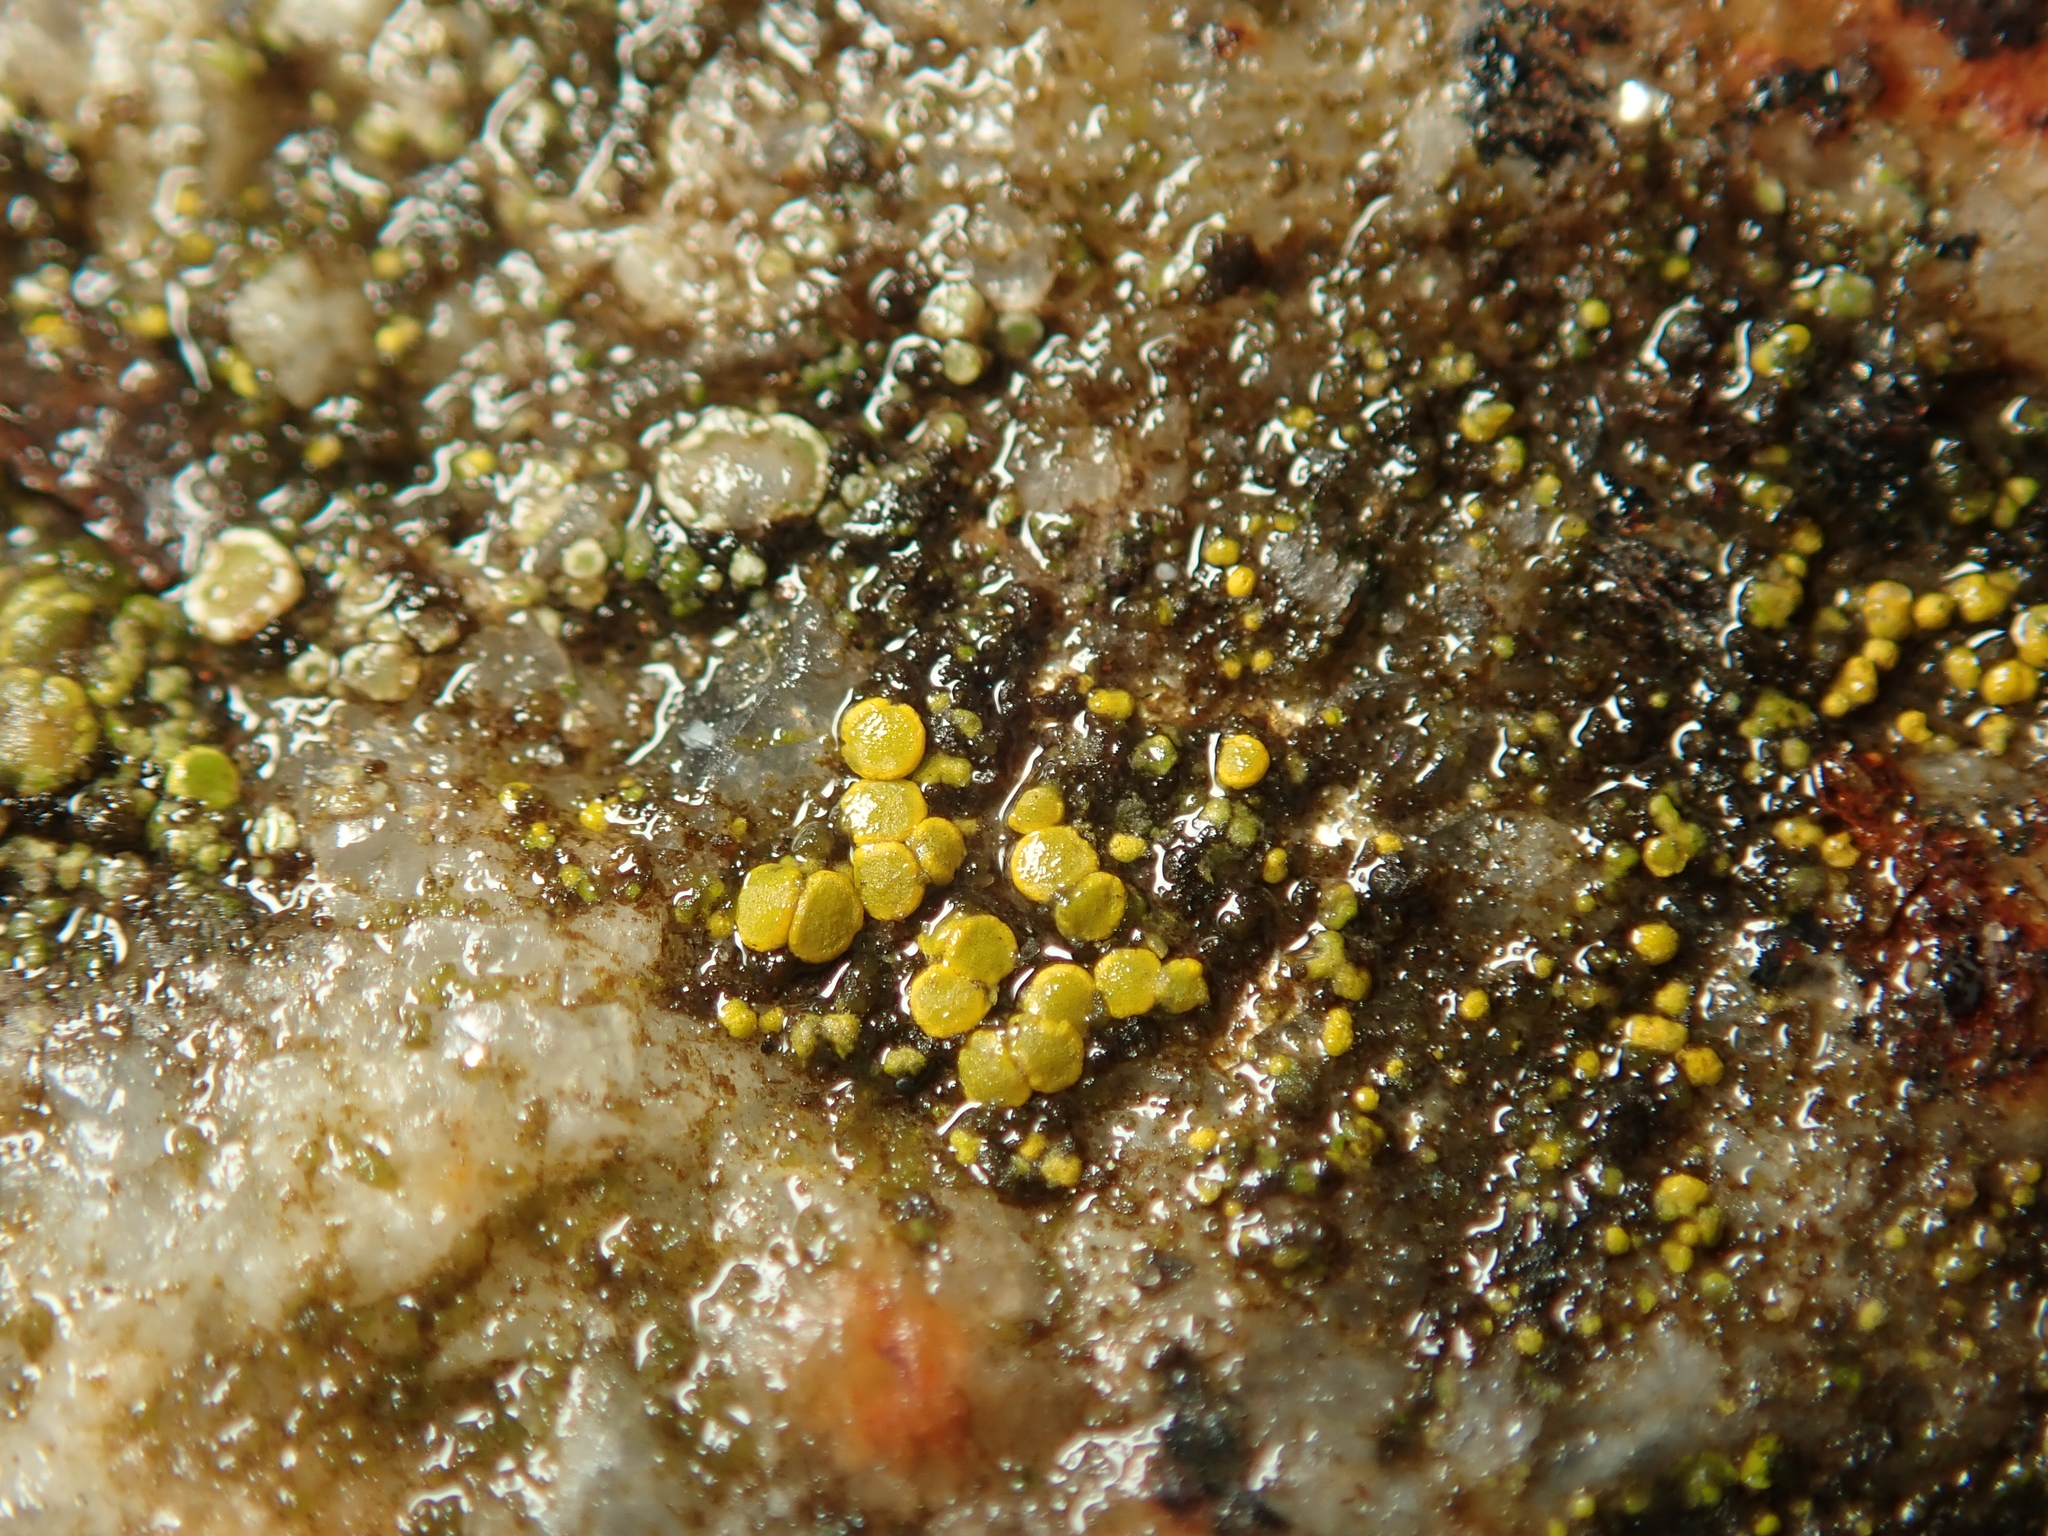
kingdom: Fungi
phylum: Ascomycota
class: Candelariomycetes
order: Candelariales
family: Candelariaceae
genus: Candelariella
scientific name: Candelariella aurella
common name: Hidden goldspeck lichen
